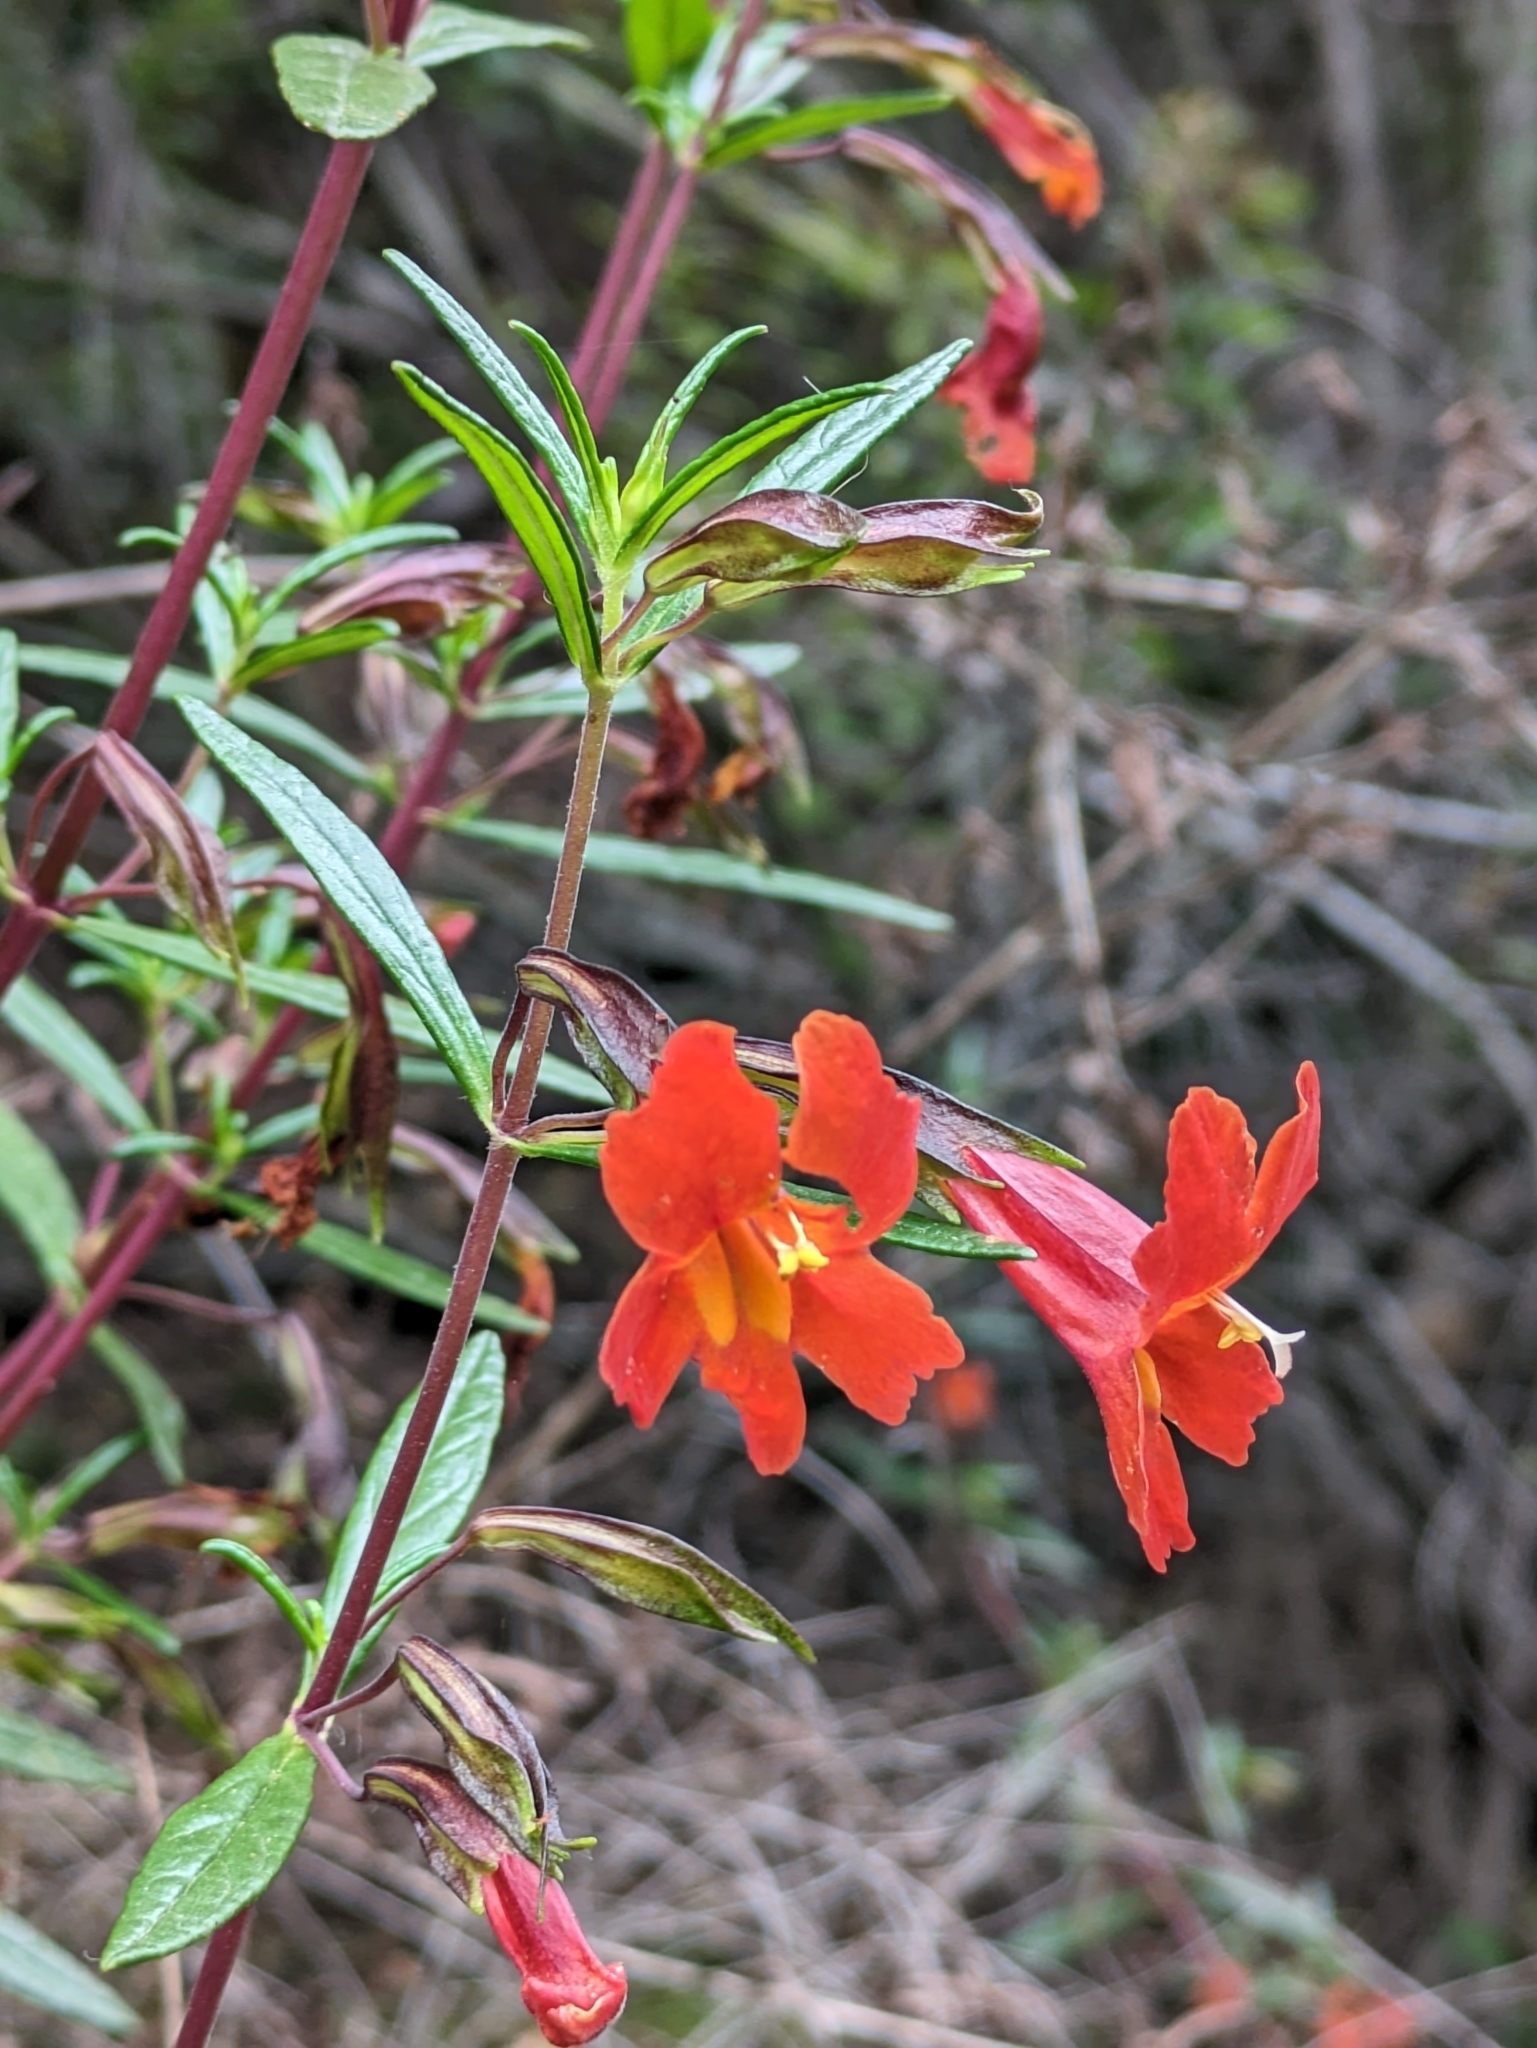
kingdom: Plantae
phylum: Tracheophyta
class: Magnoliopsida
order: Lamiales
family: Phrymaceae
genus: Diplacus
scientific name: Diplacus puniceus
